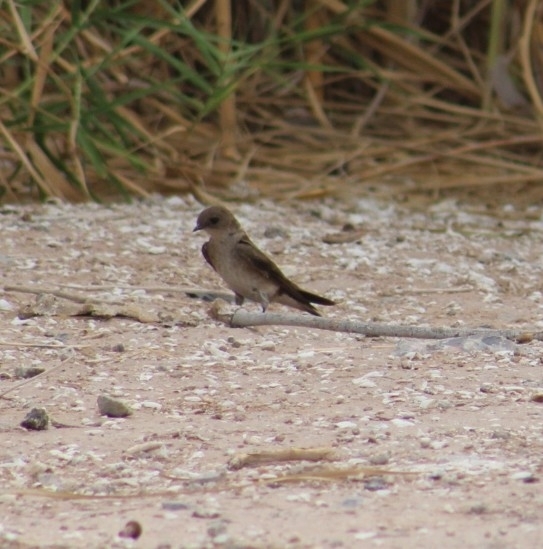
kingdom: Animalia
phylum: Chordata
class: Aves
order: Passeriformes
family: Hirundinidae
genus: Stelgidopteryx
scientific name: Stelgidopteryx serripennis
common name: Northern rough-winged swallow
